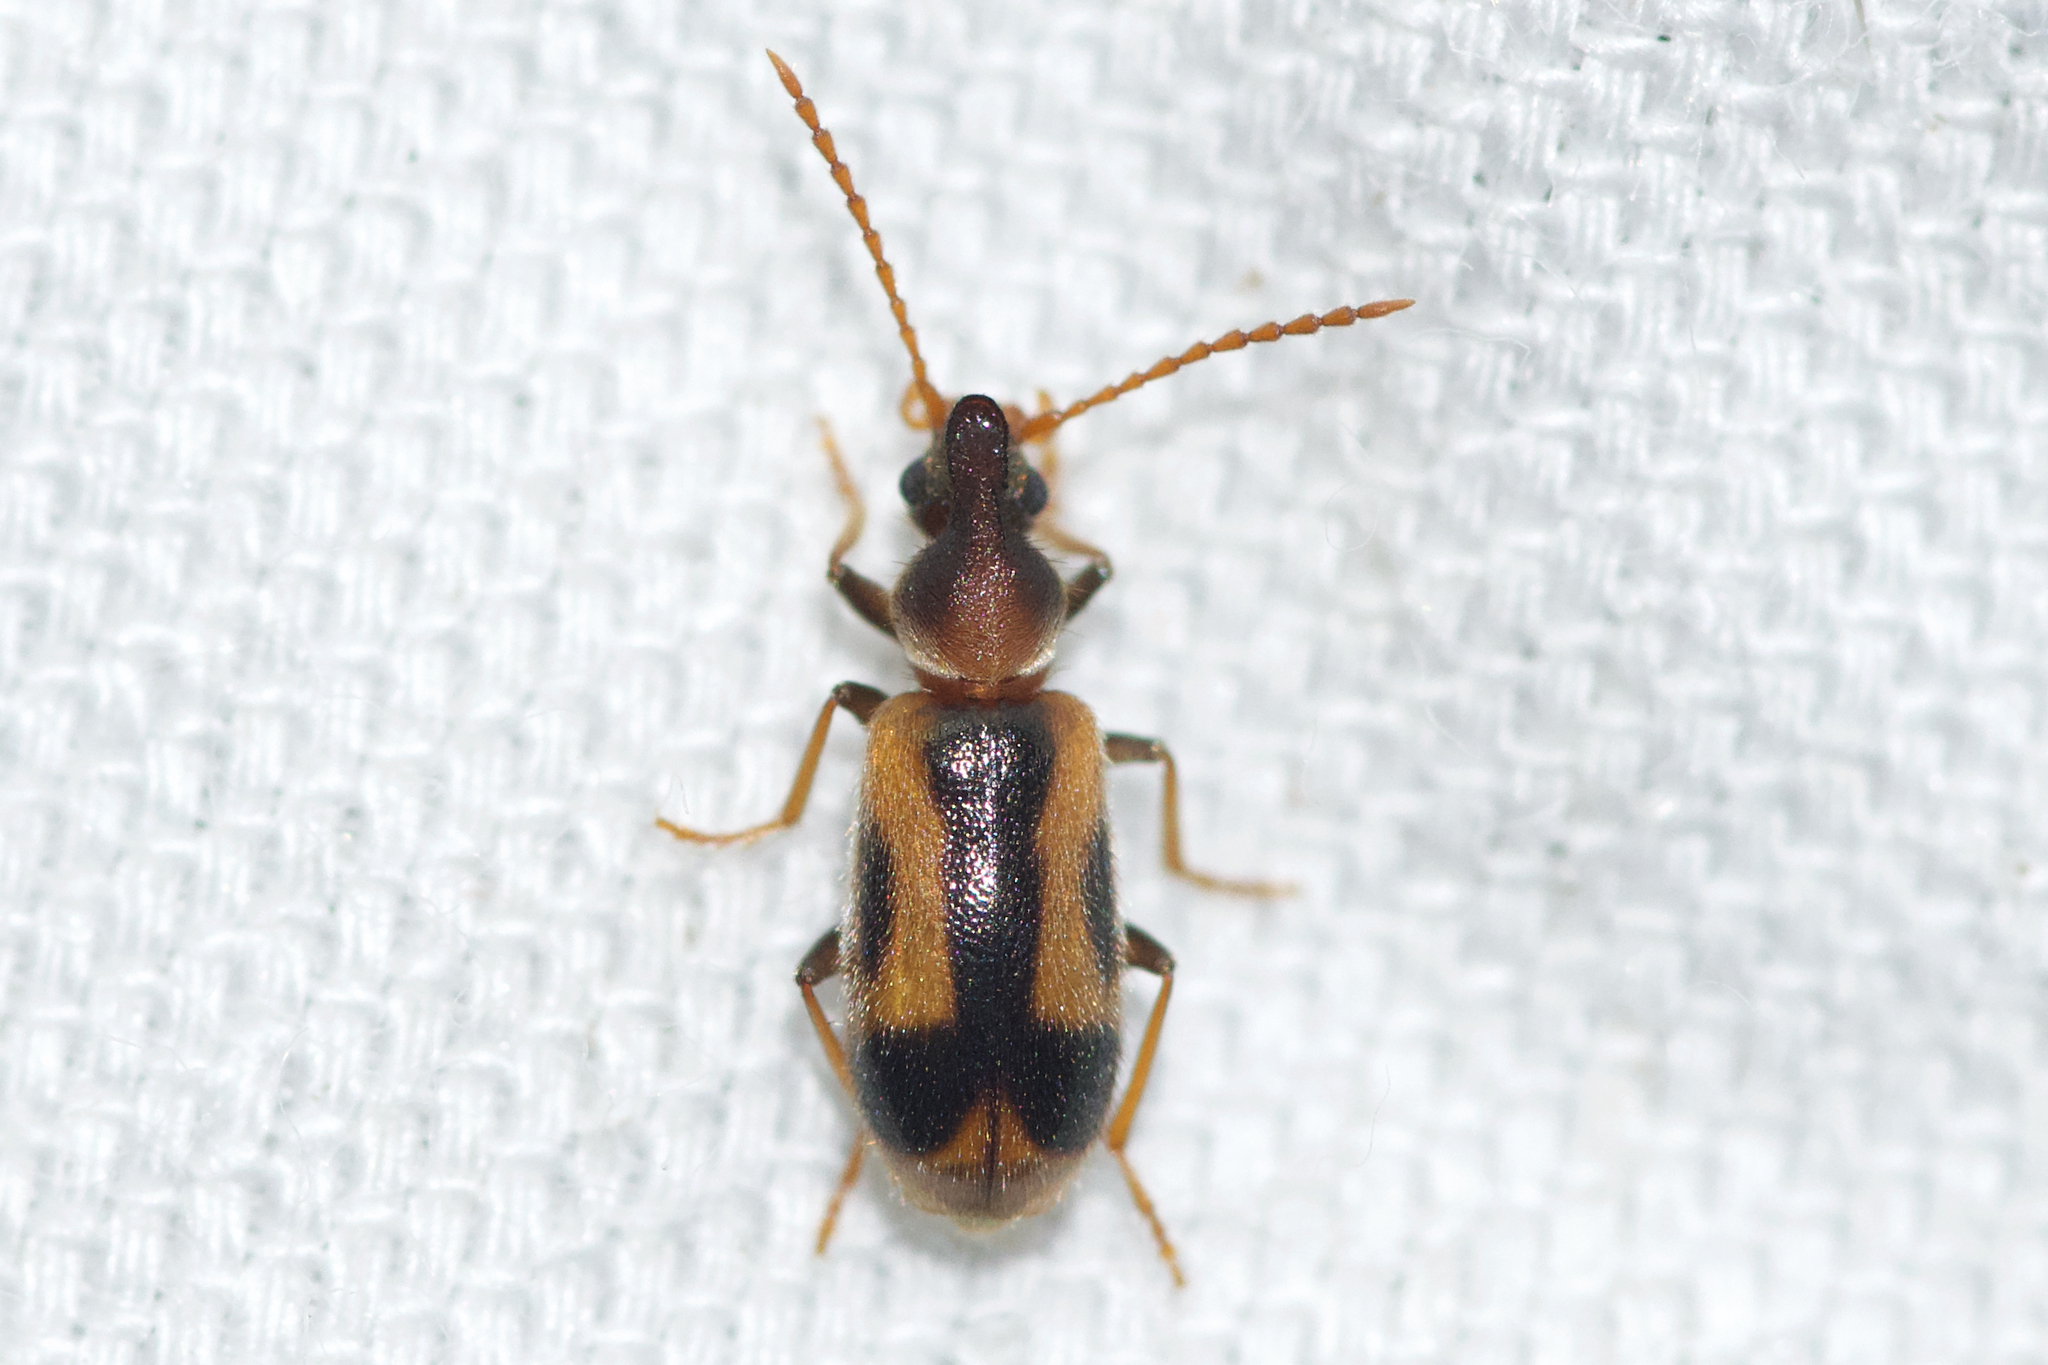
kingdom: Animalia
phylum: Arthropoda
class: Insecta
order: Coleoptera
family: Anthicidae
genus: Notoxus
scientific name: Notoxus anchora
